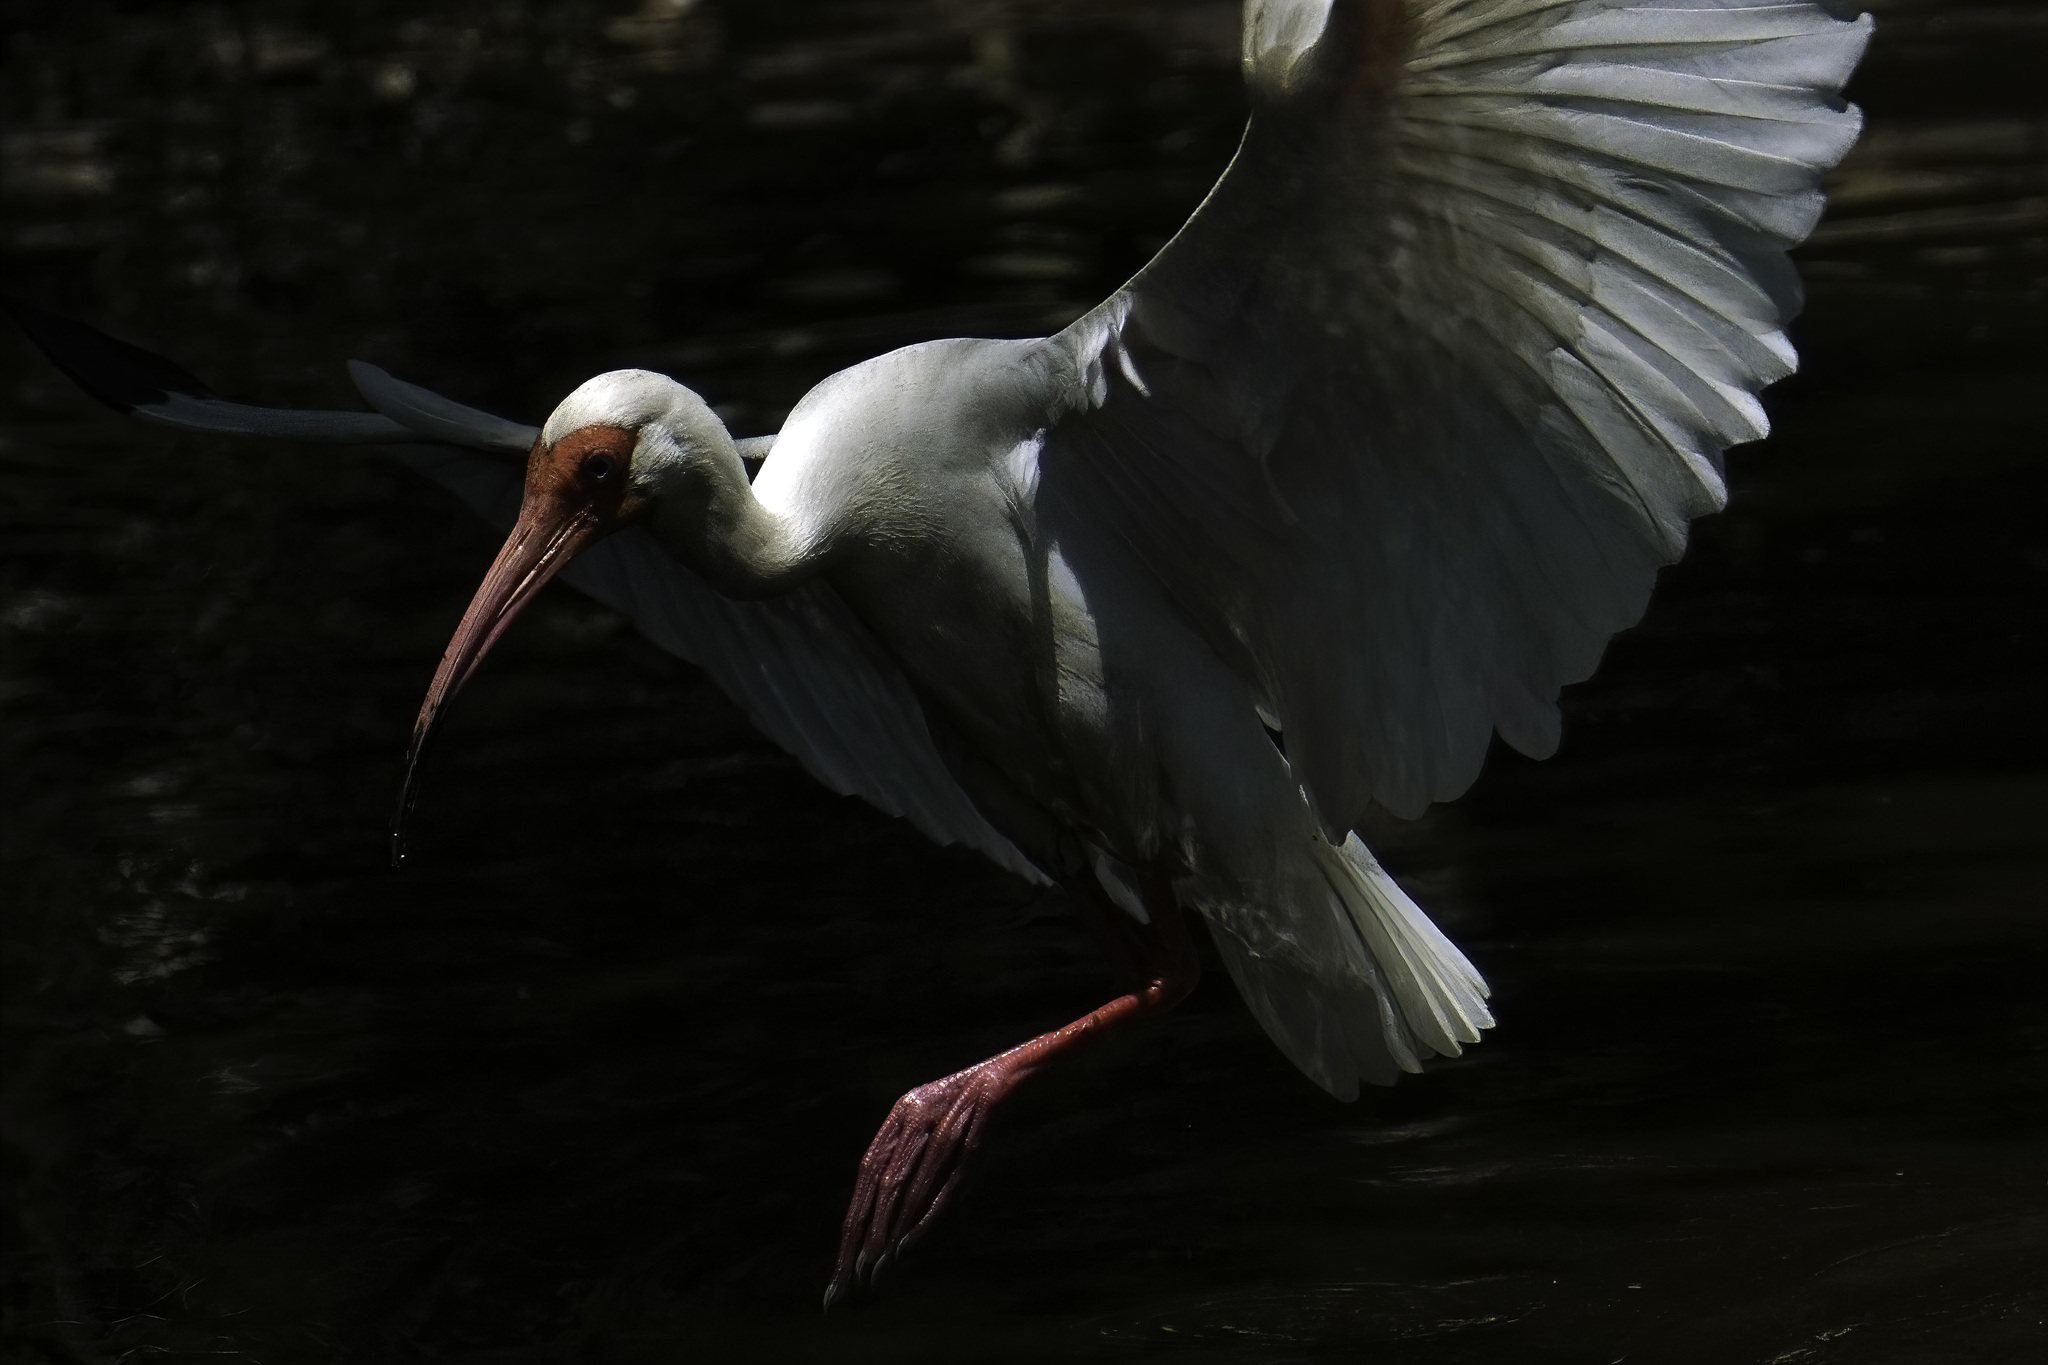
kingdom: Animalia
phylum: Chordata
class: Aves
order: Pelecaniformes
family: Threskiornithidae
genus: Eudocimus
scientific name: Eudocimus albus
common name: White ibis
